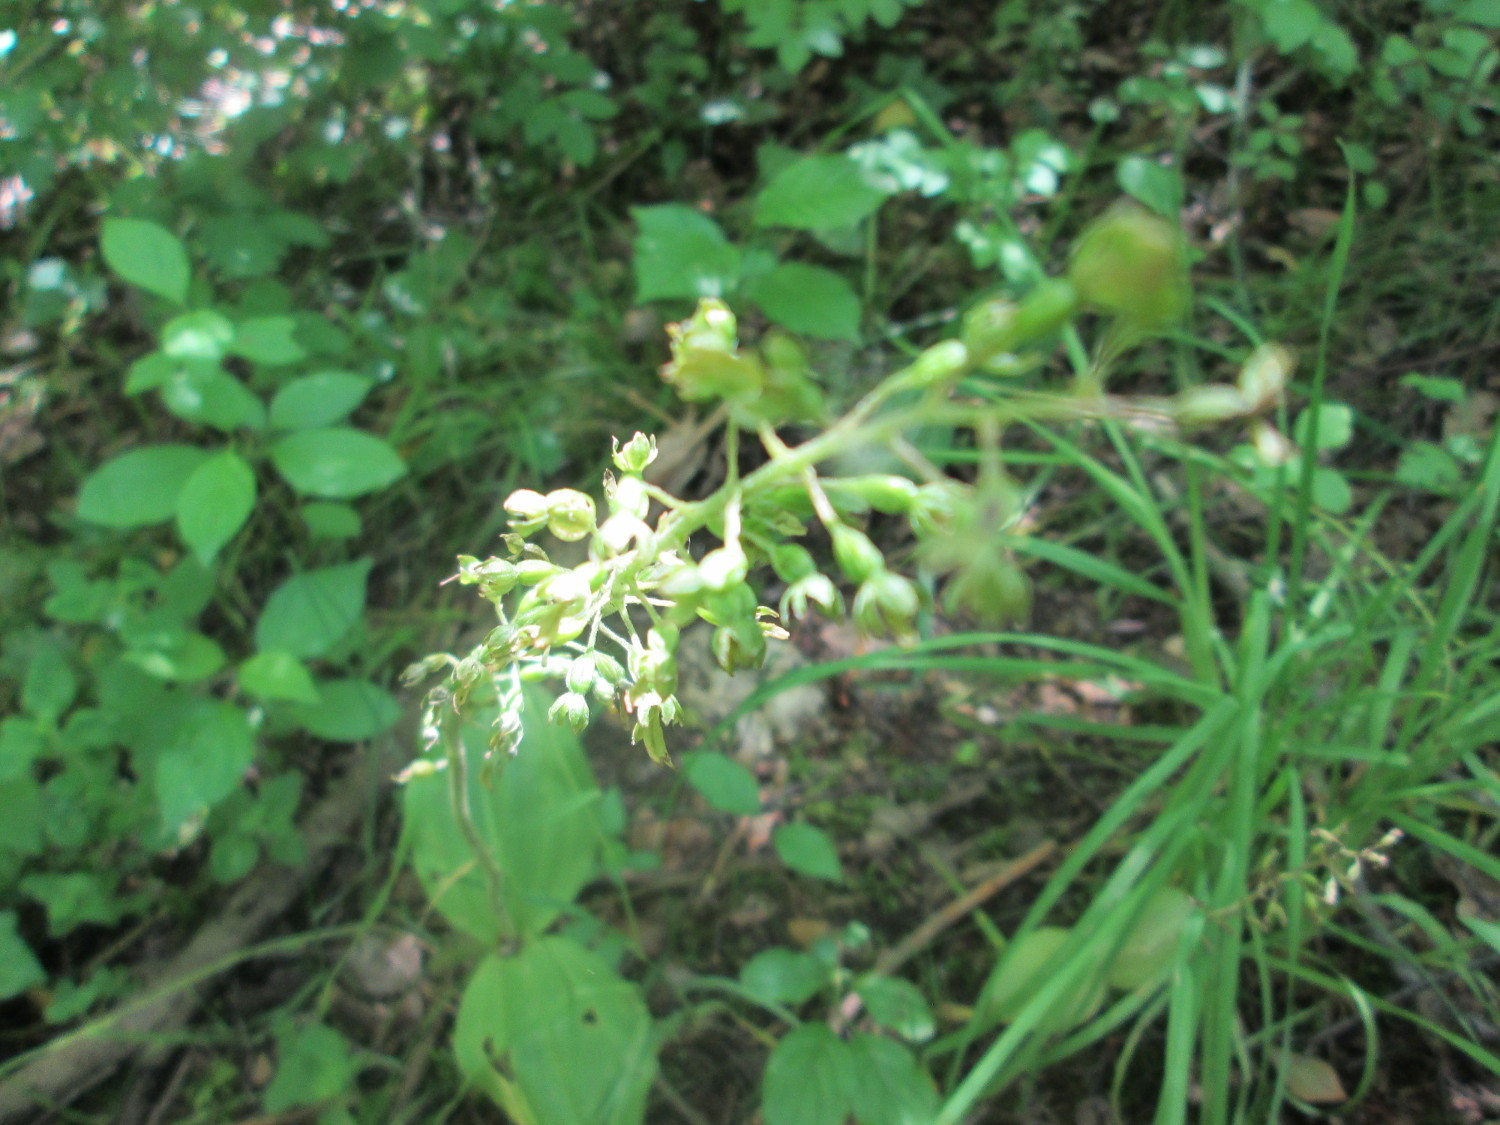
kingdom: Plantae
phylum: Tracheophyta
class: Liliopsida
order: Asparagales
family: Orchidaceae
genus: Neottia
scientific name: Neottia ovata
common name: Common twayblade
